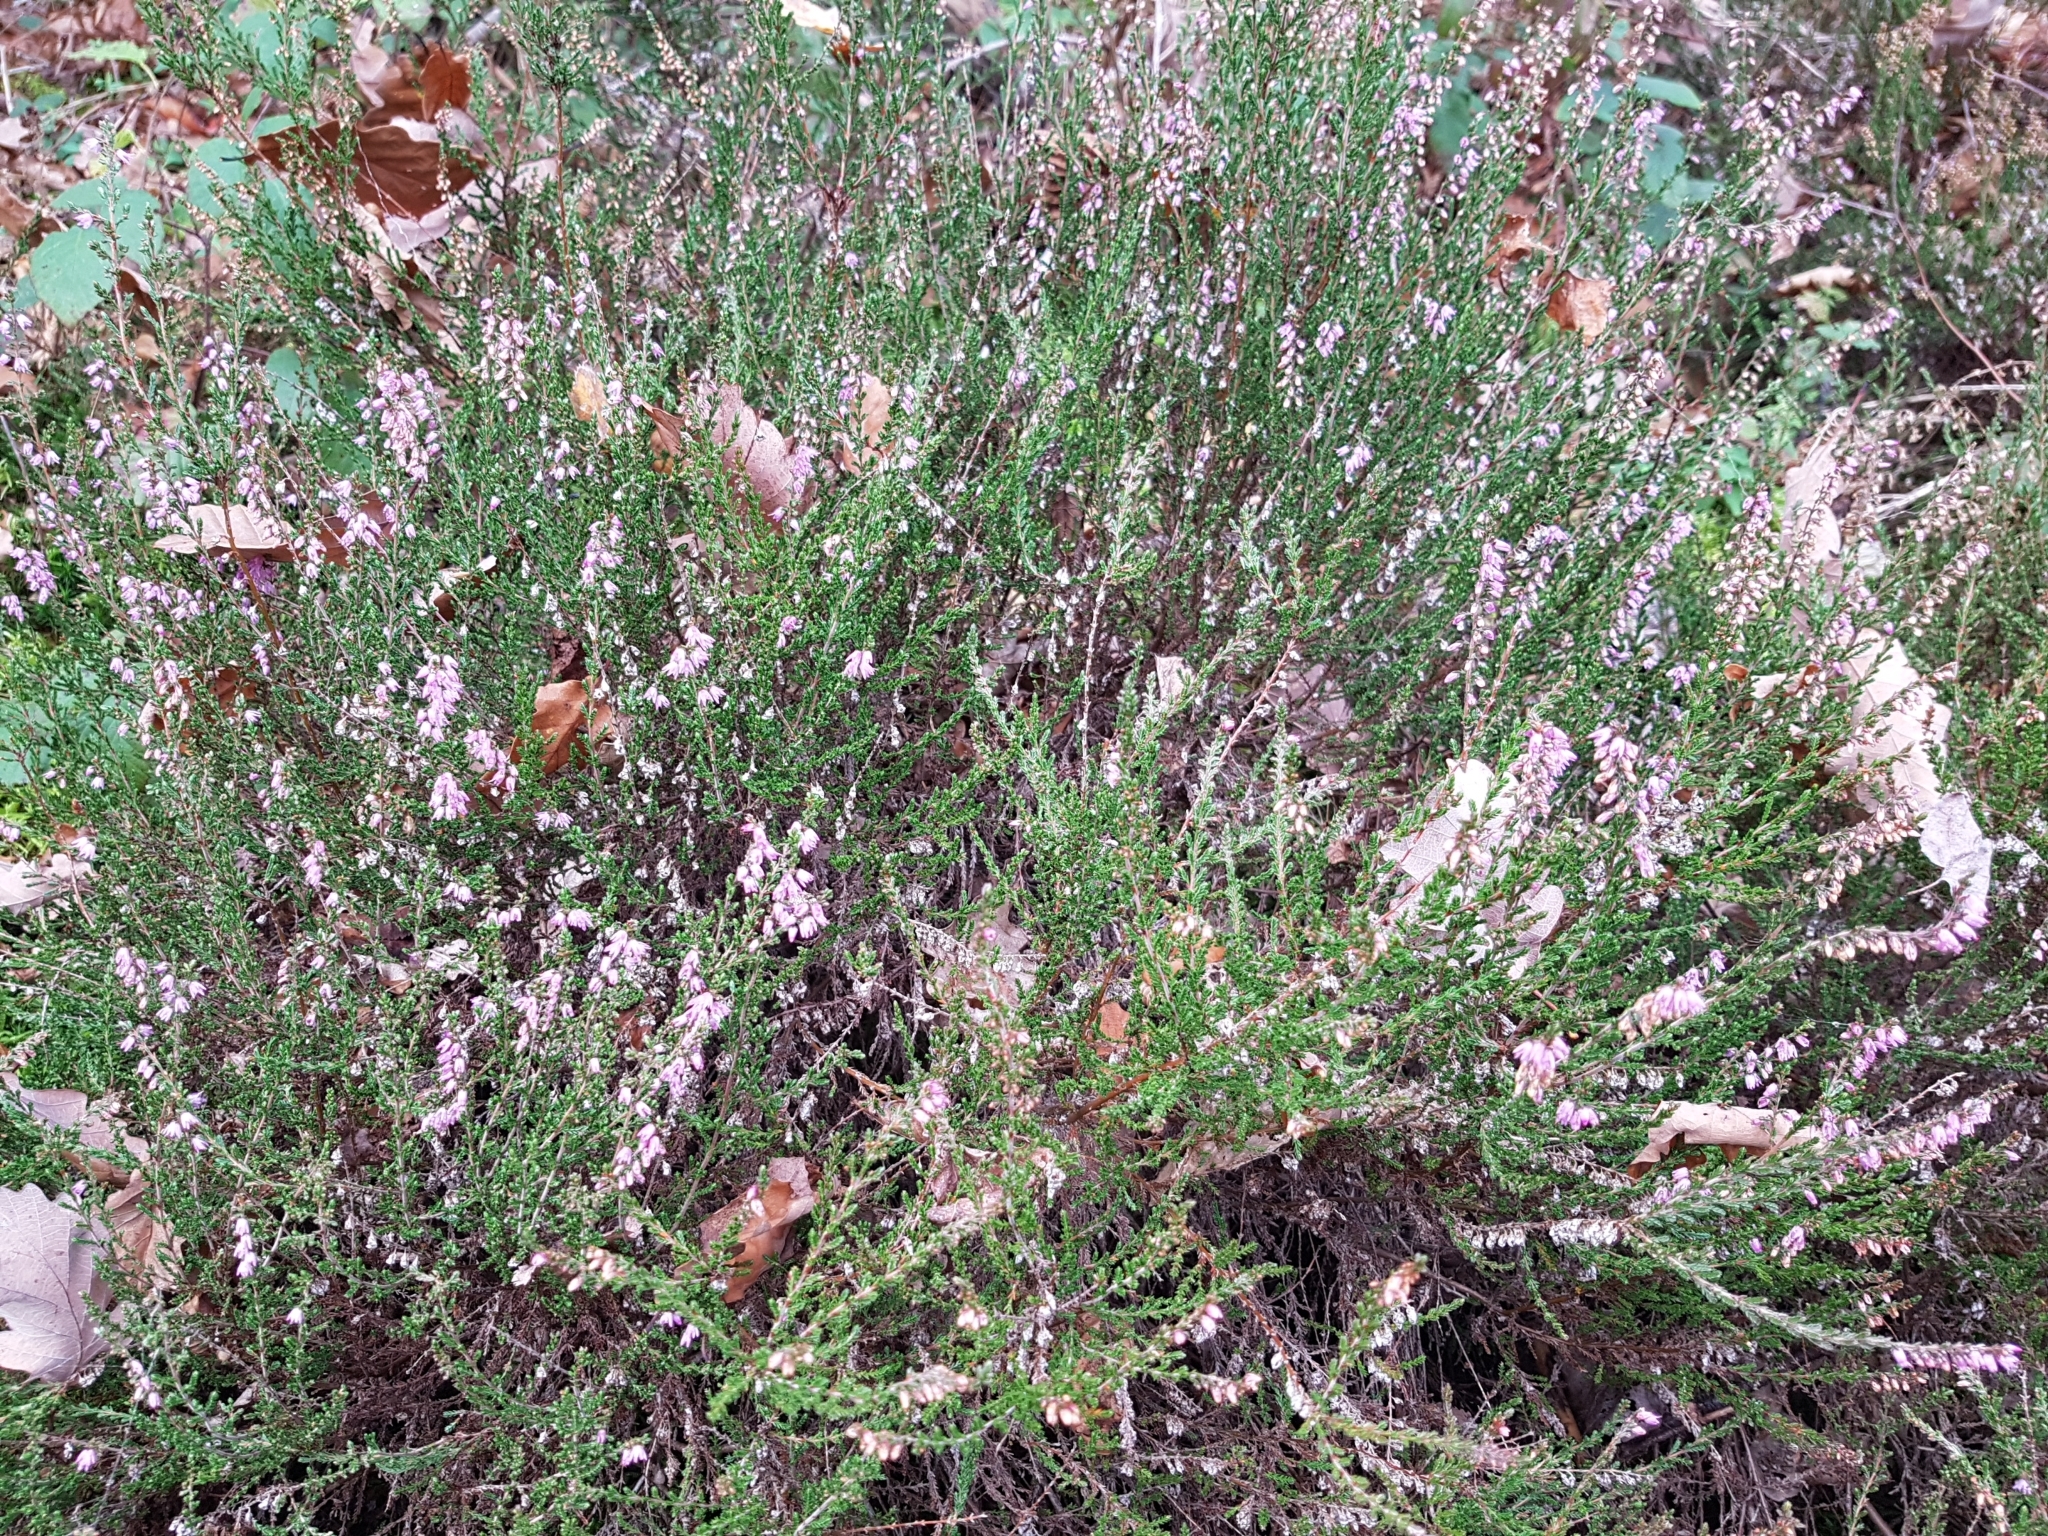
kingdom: Plantae
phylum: Tracheophyta
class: Magnoliopsida
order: Ericales
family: Ericaceae
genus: Calluna
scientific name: Calluna vulgaris
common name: Heather
